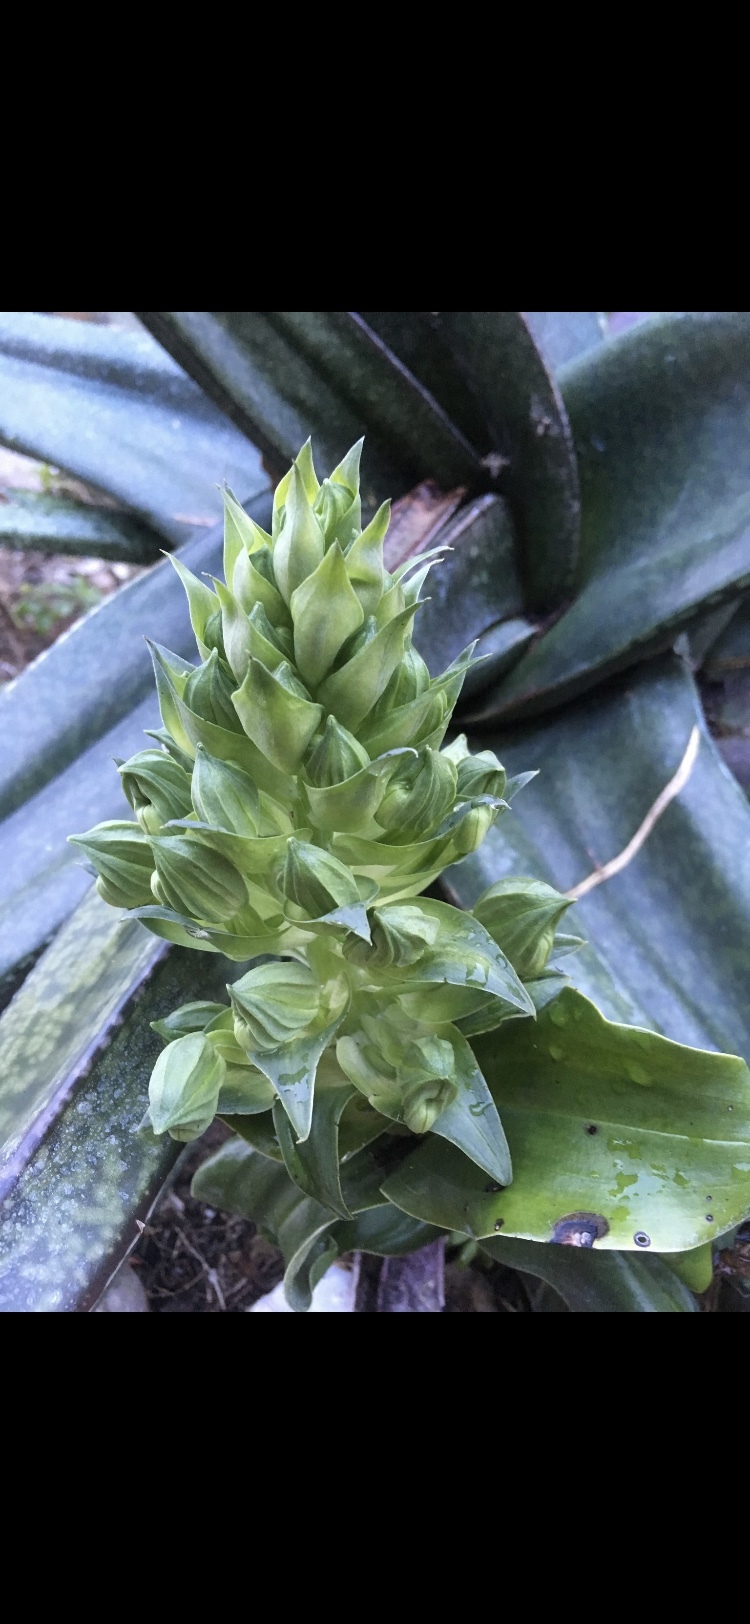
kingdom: Plantae
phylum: Tracheophyta
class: Liliopsida
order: Asparagales
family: Orchidaceae
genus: Bonatea
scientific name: Bonatea speciosa
